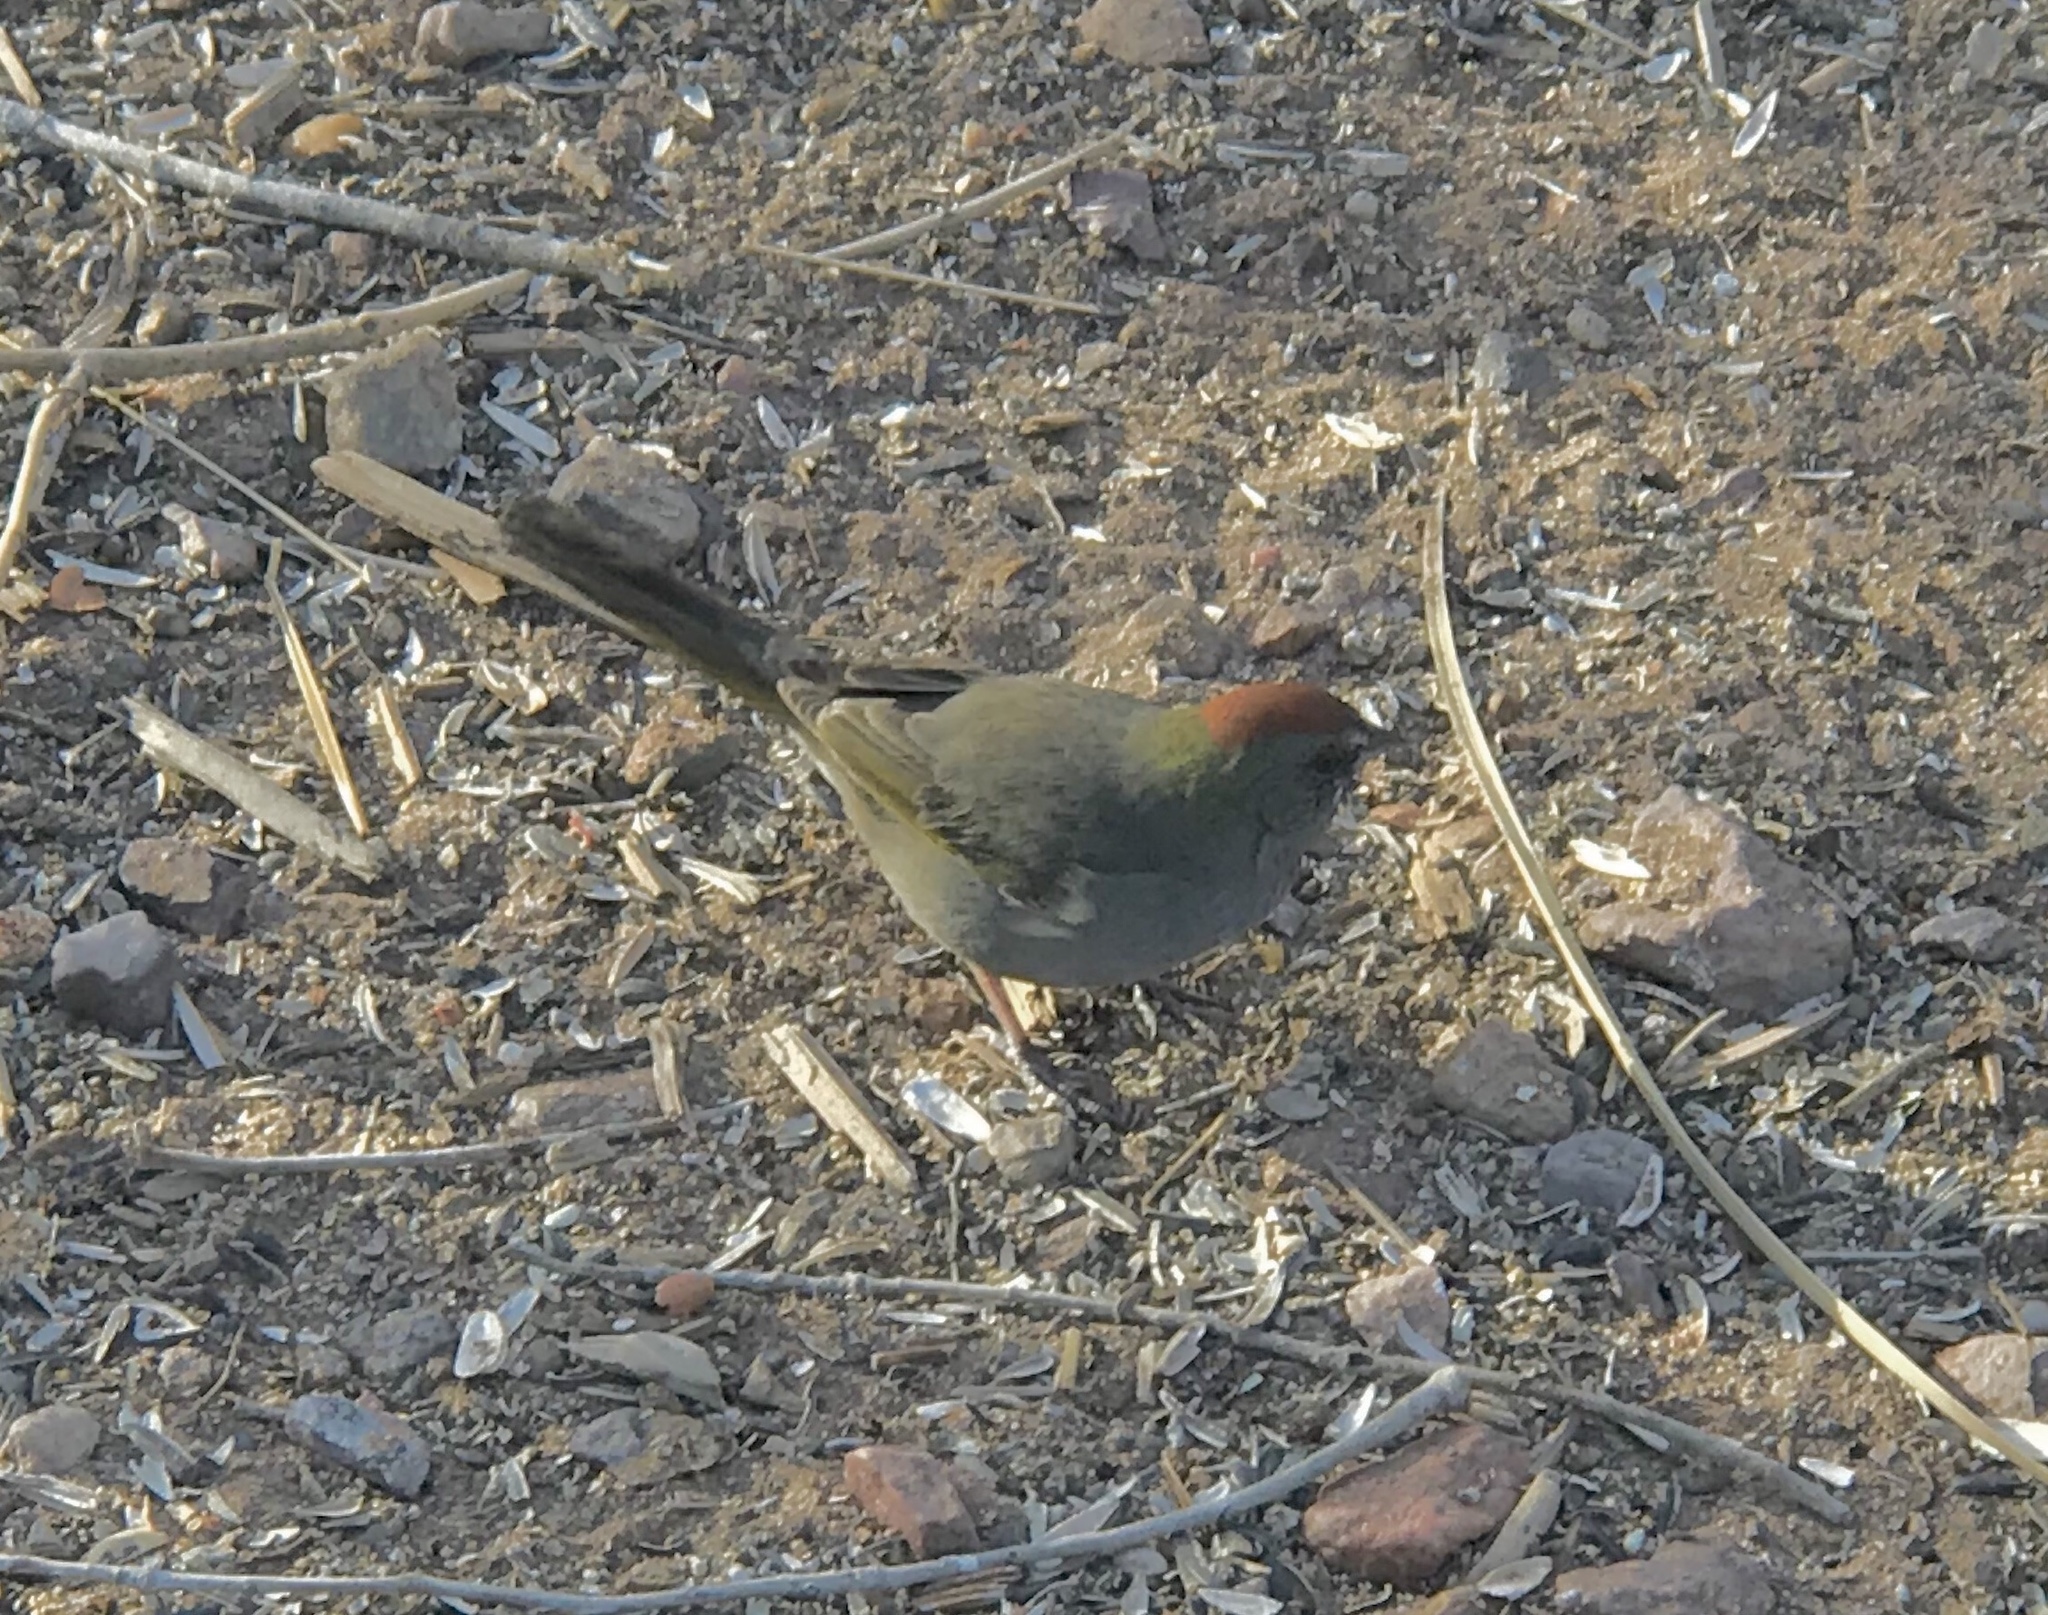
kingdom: Animalia
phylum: Chordata
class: Aves
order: Passeriformes
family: Passerellidae
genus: Pipilo
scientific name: Pipilo chlorurus
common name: Green-tailed towhee
